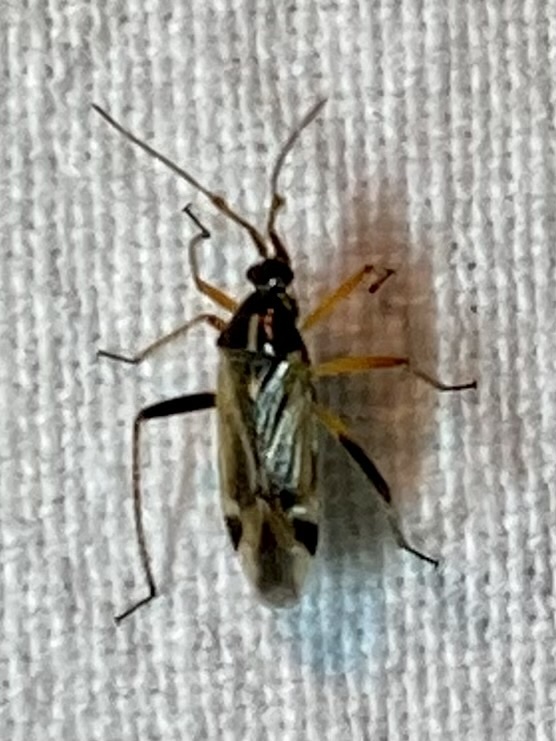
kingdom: Animalia
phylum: Arthropoda
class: Insecta
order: Hemiptera
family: Miridae
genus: Harpocera
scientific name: Harpocera thoracica
